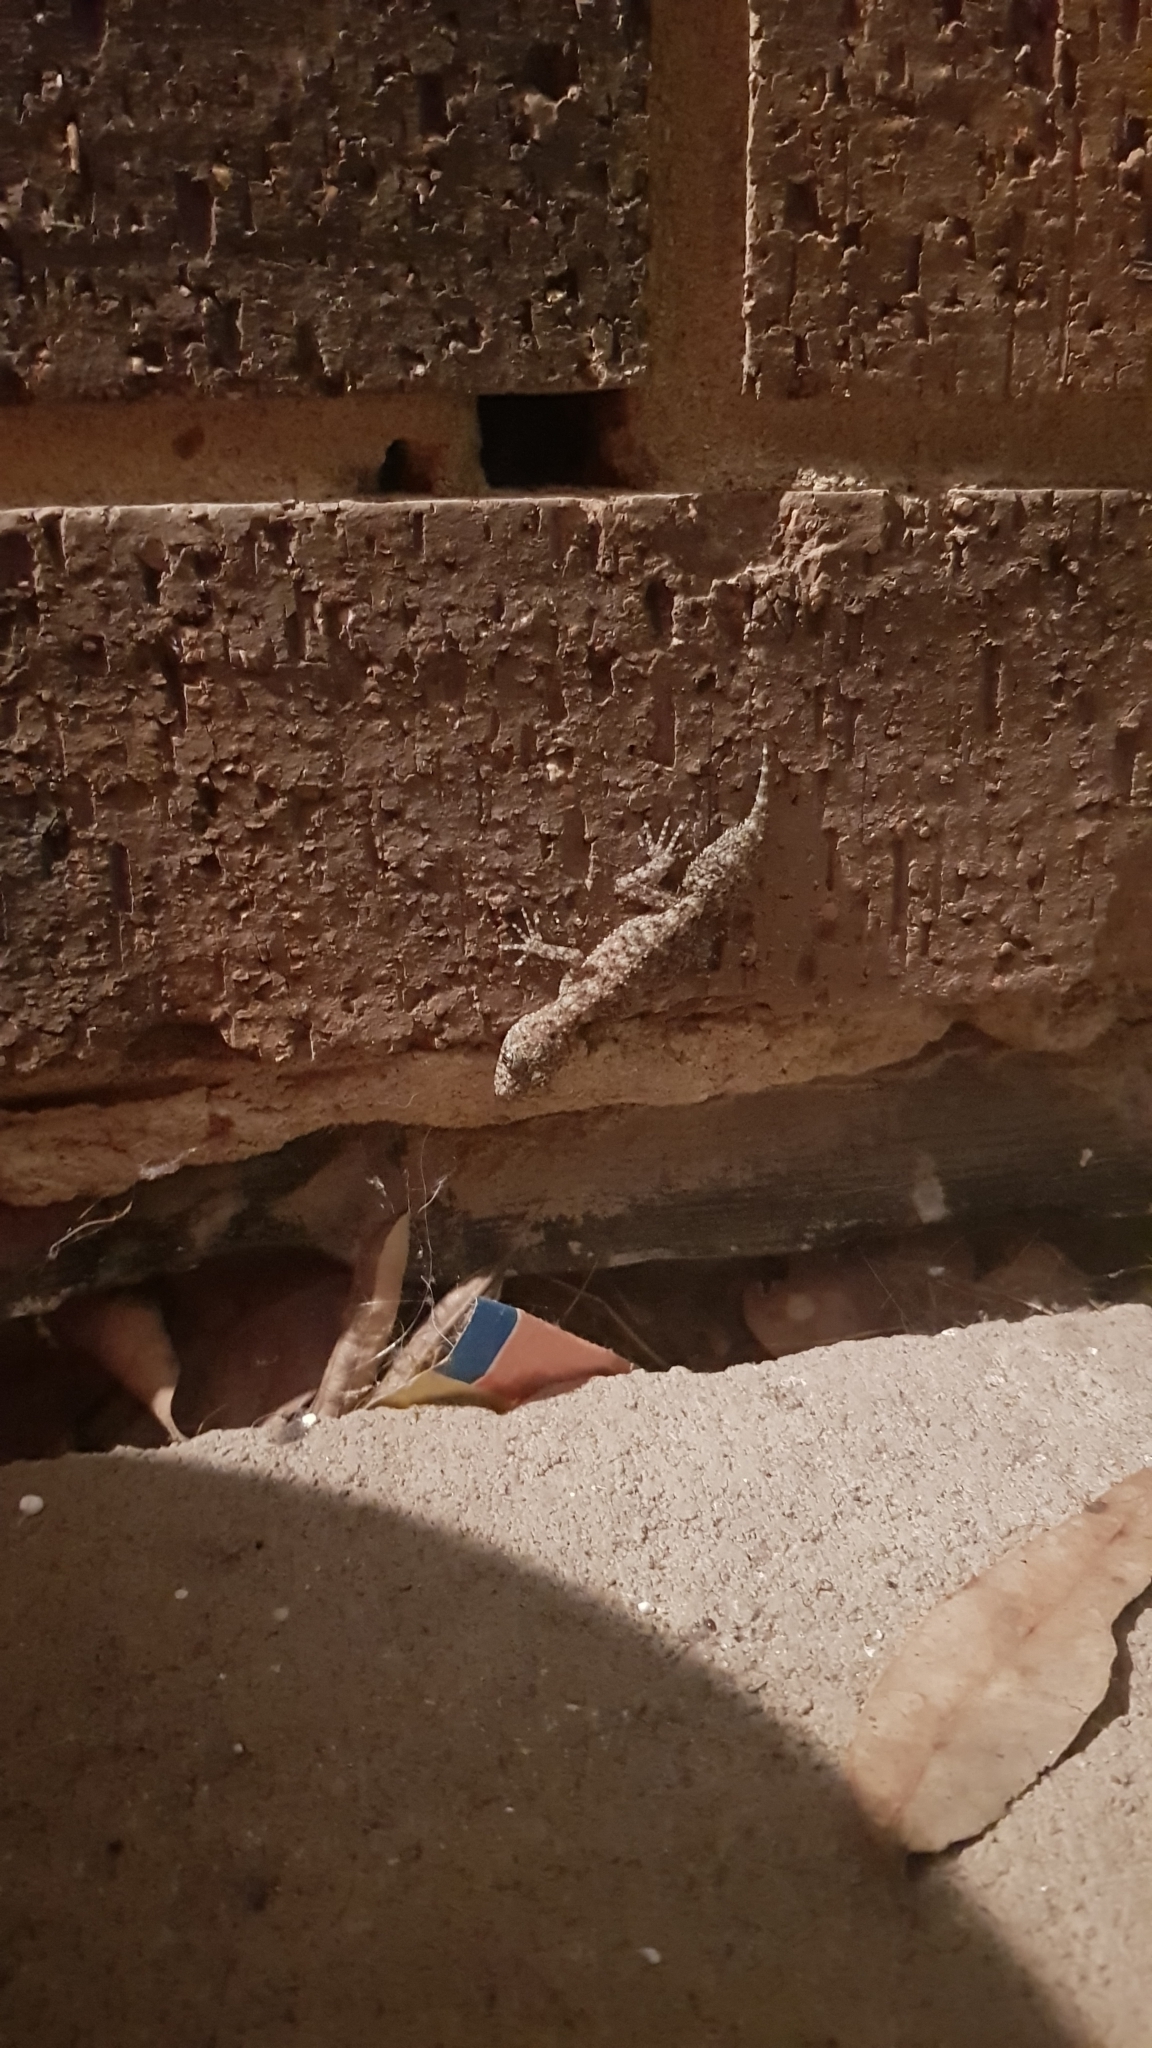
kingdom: Animalia
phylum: Chordata
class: Squamata
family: Carphodactylidae
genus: Phyllurus
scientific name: Phyllurus platurus
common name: Broad-tailed gecko
